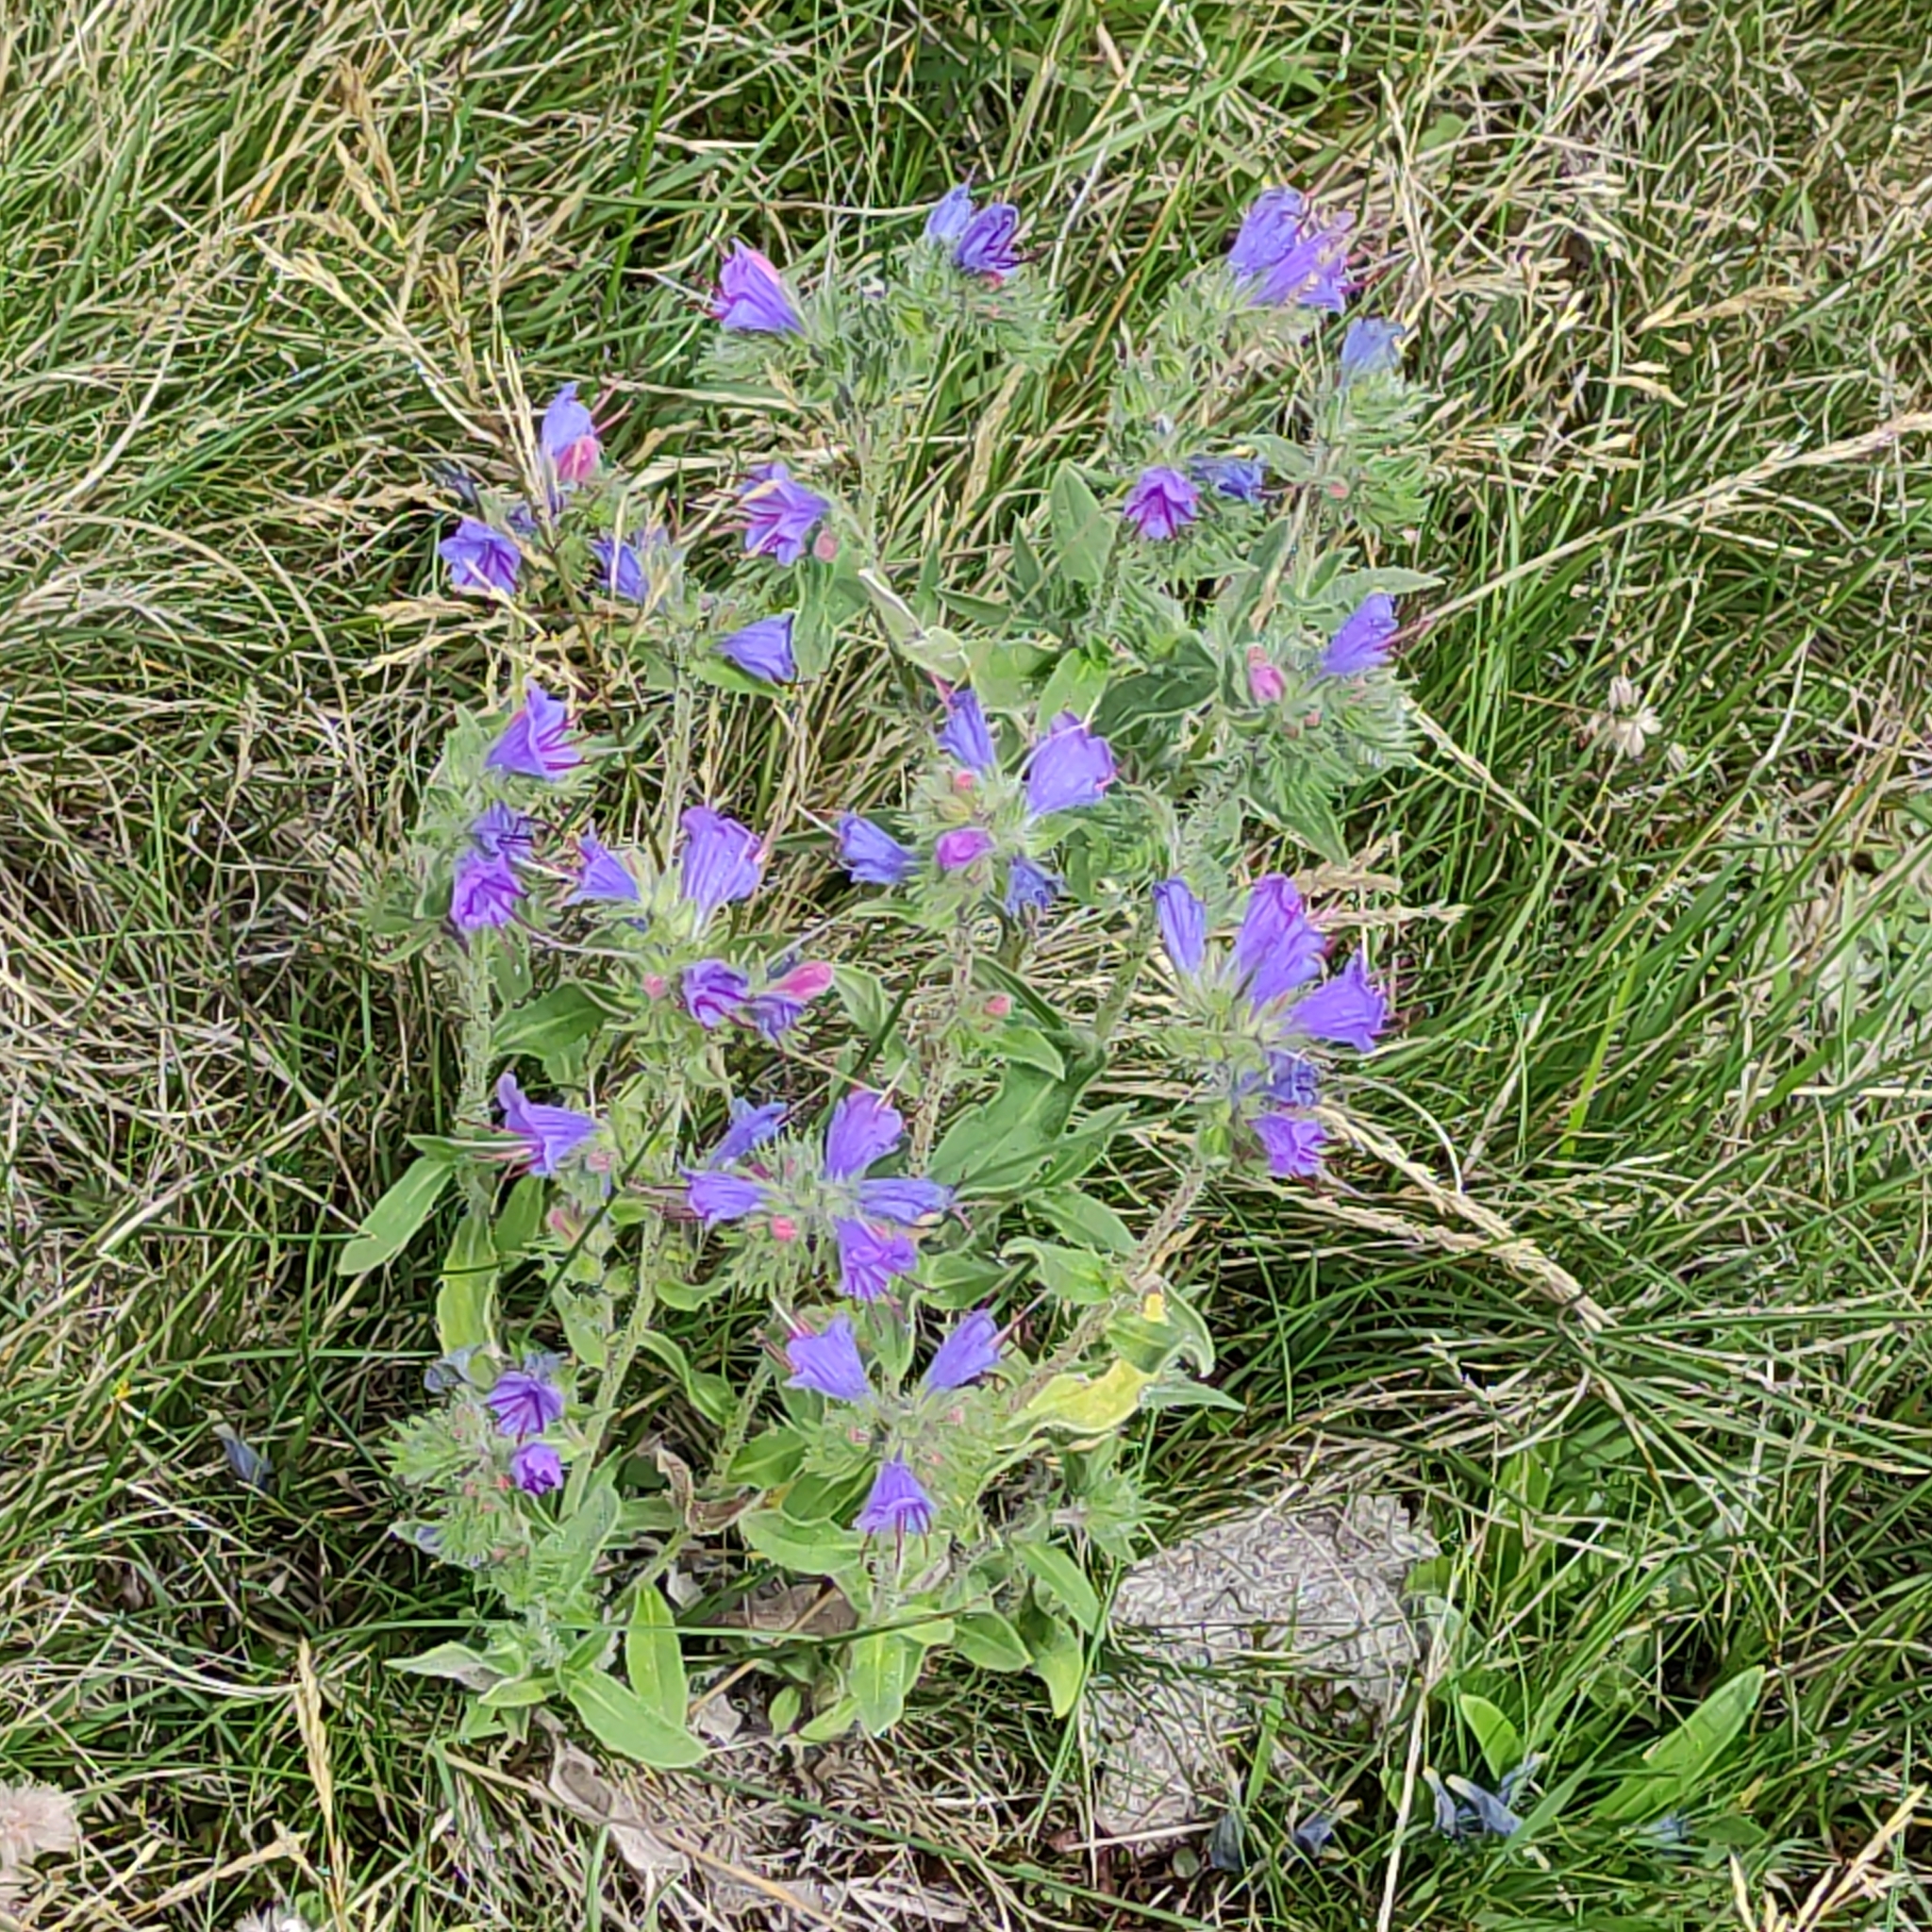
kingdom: Plantae
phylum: Tracheophyta
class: Magnoliopsida
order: Boraginales
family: Boraginaceae
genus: Echium
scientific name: Echium vulgare
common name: Common viper's bugloss
